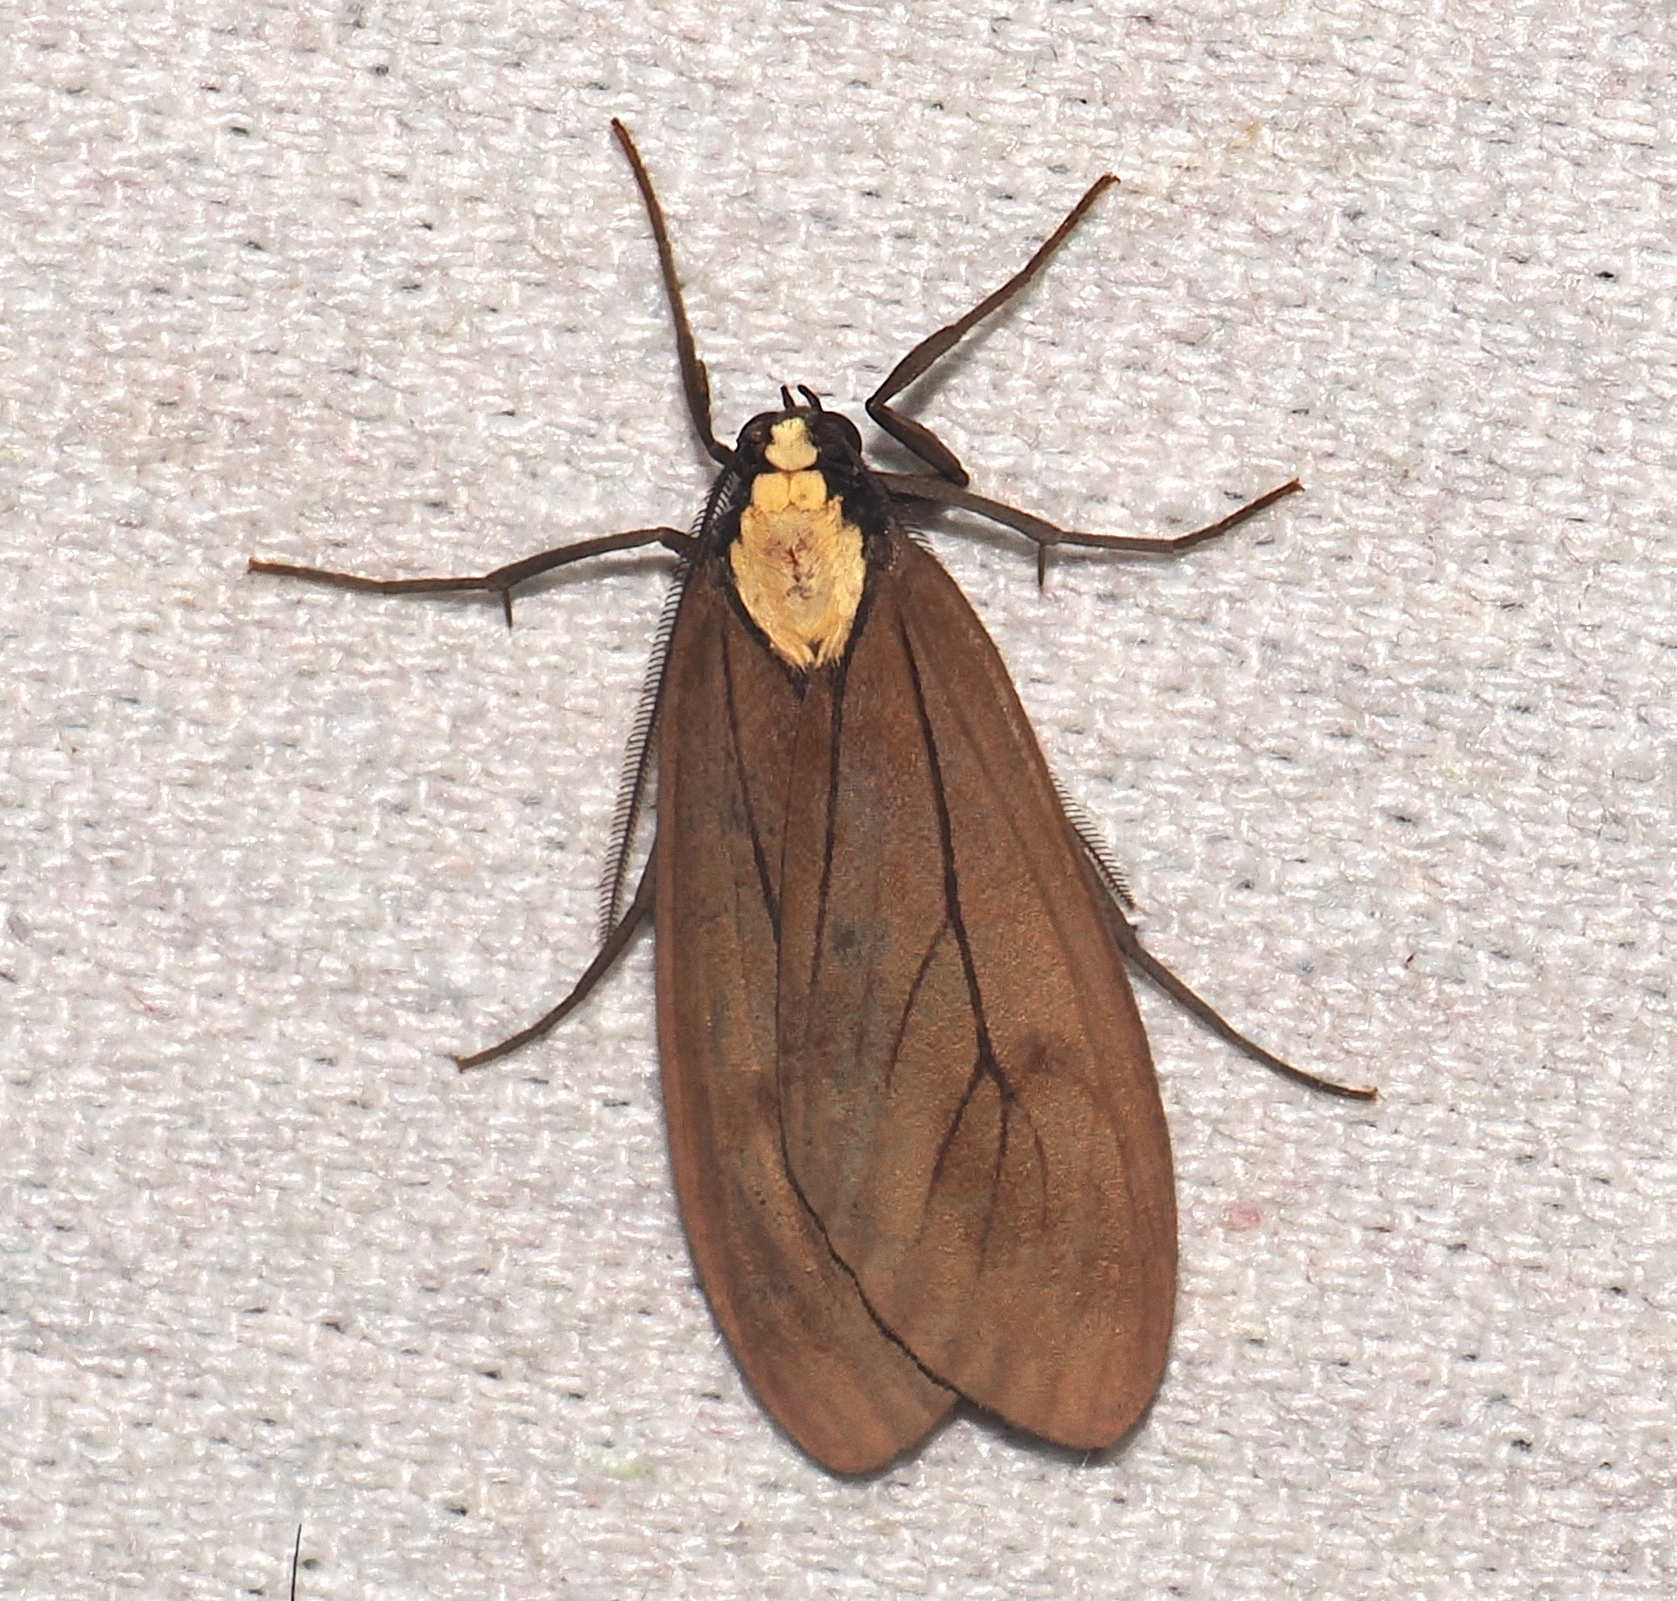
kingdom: Animalia
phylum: Arthropoda
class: Insecta
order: Lepidoptera
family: Erebidae
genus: Opharus
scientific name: Opharus basalis
